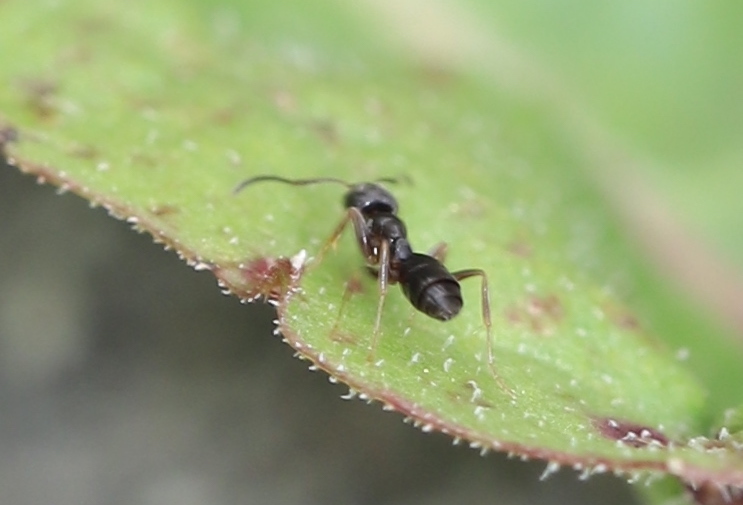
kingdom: Animalia
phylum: Arthropoda
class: Insecta
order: Hymenoptera
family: Formicidae
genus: Tapinoma
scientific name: Tapinoma sessile
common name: Odorous house ant
